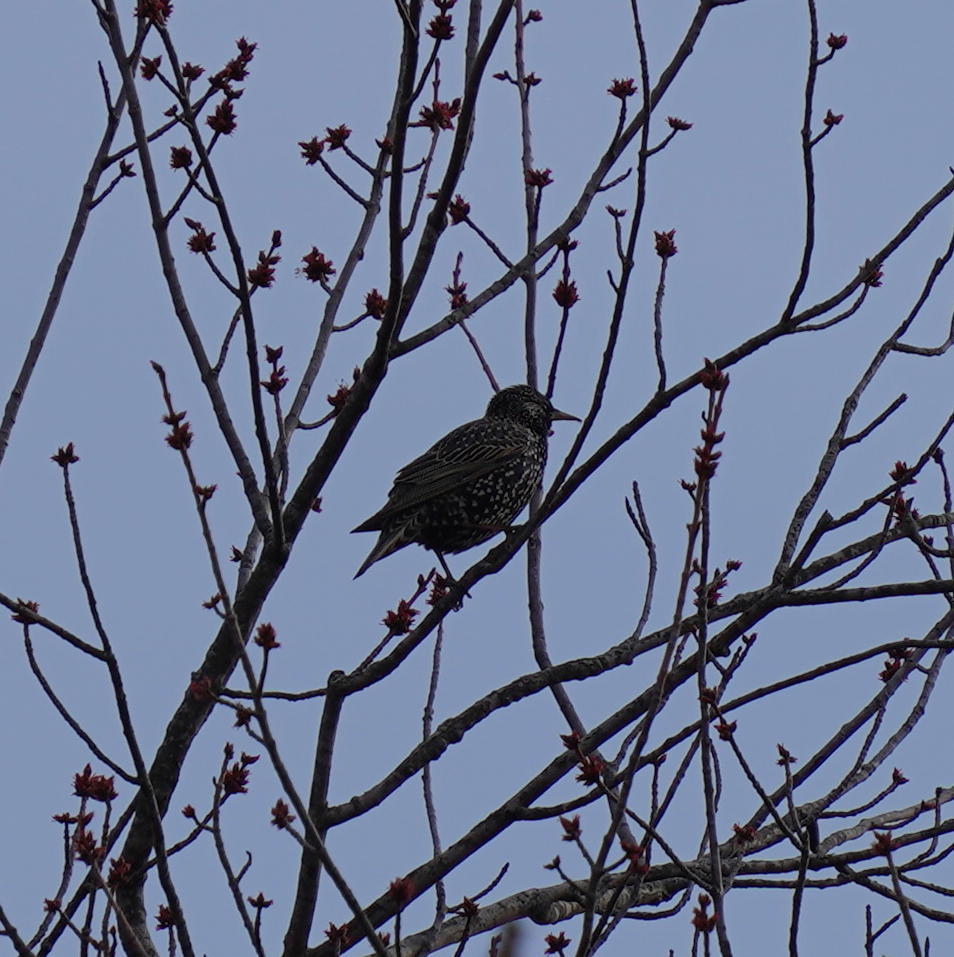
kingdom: Animalia
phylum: Chordata
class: Aves
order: Passeriformes
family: Sturnidae
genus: Sturnus
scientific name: Sturnus vulgaris
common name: Common starling
